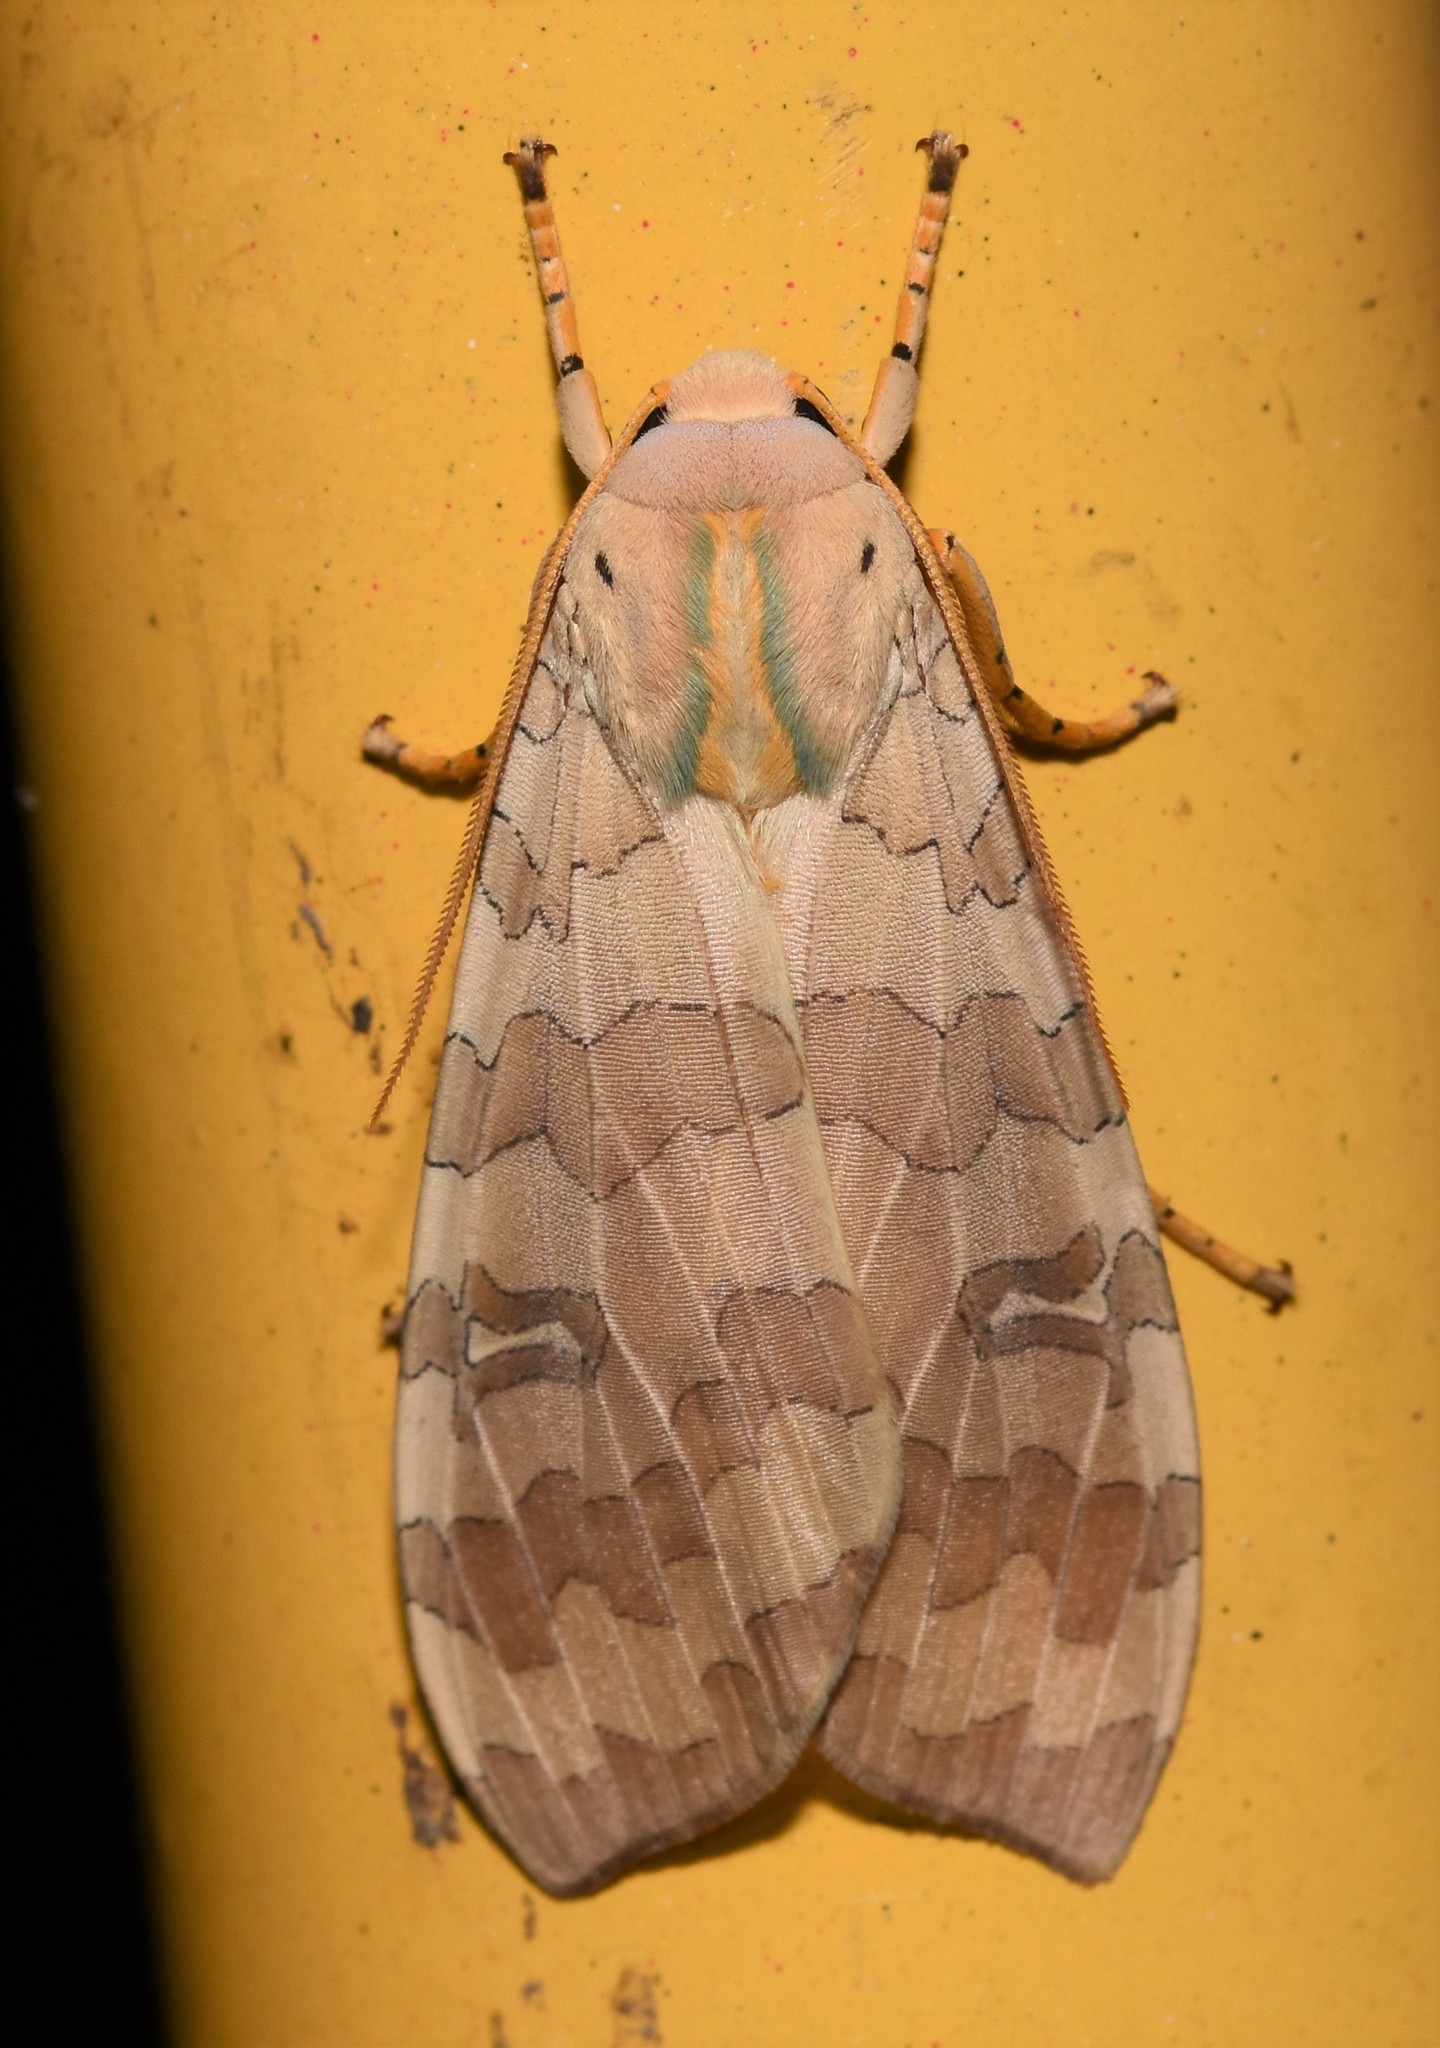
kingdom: Animalia
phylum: Arthropoda
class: Insecta
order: Lepidoptera
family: Erebidae
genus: Halysidota
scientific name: Halysidota
